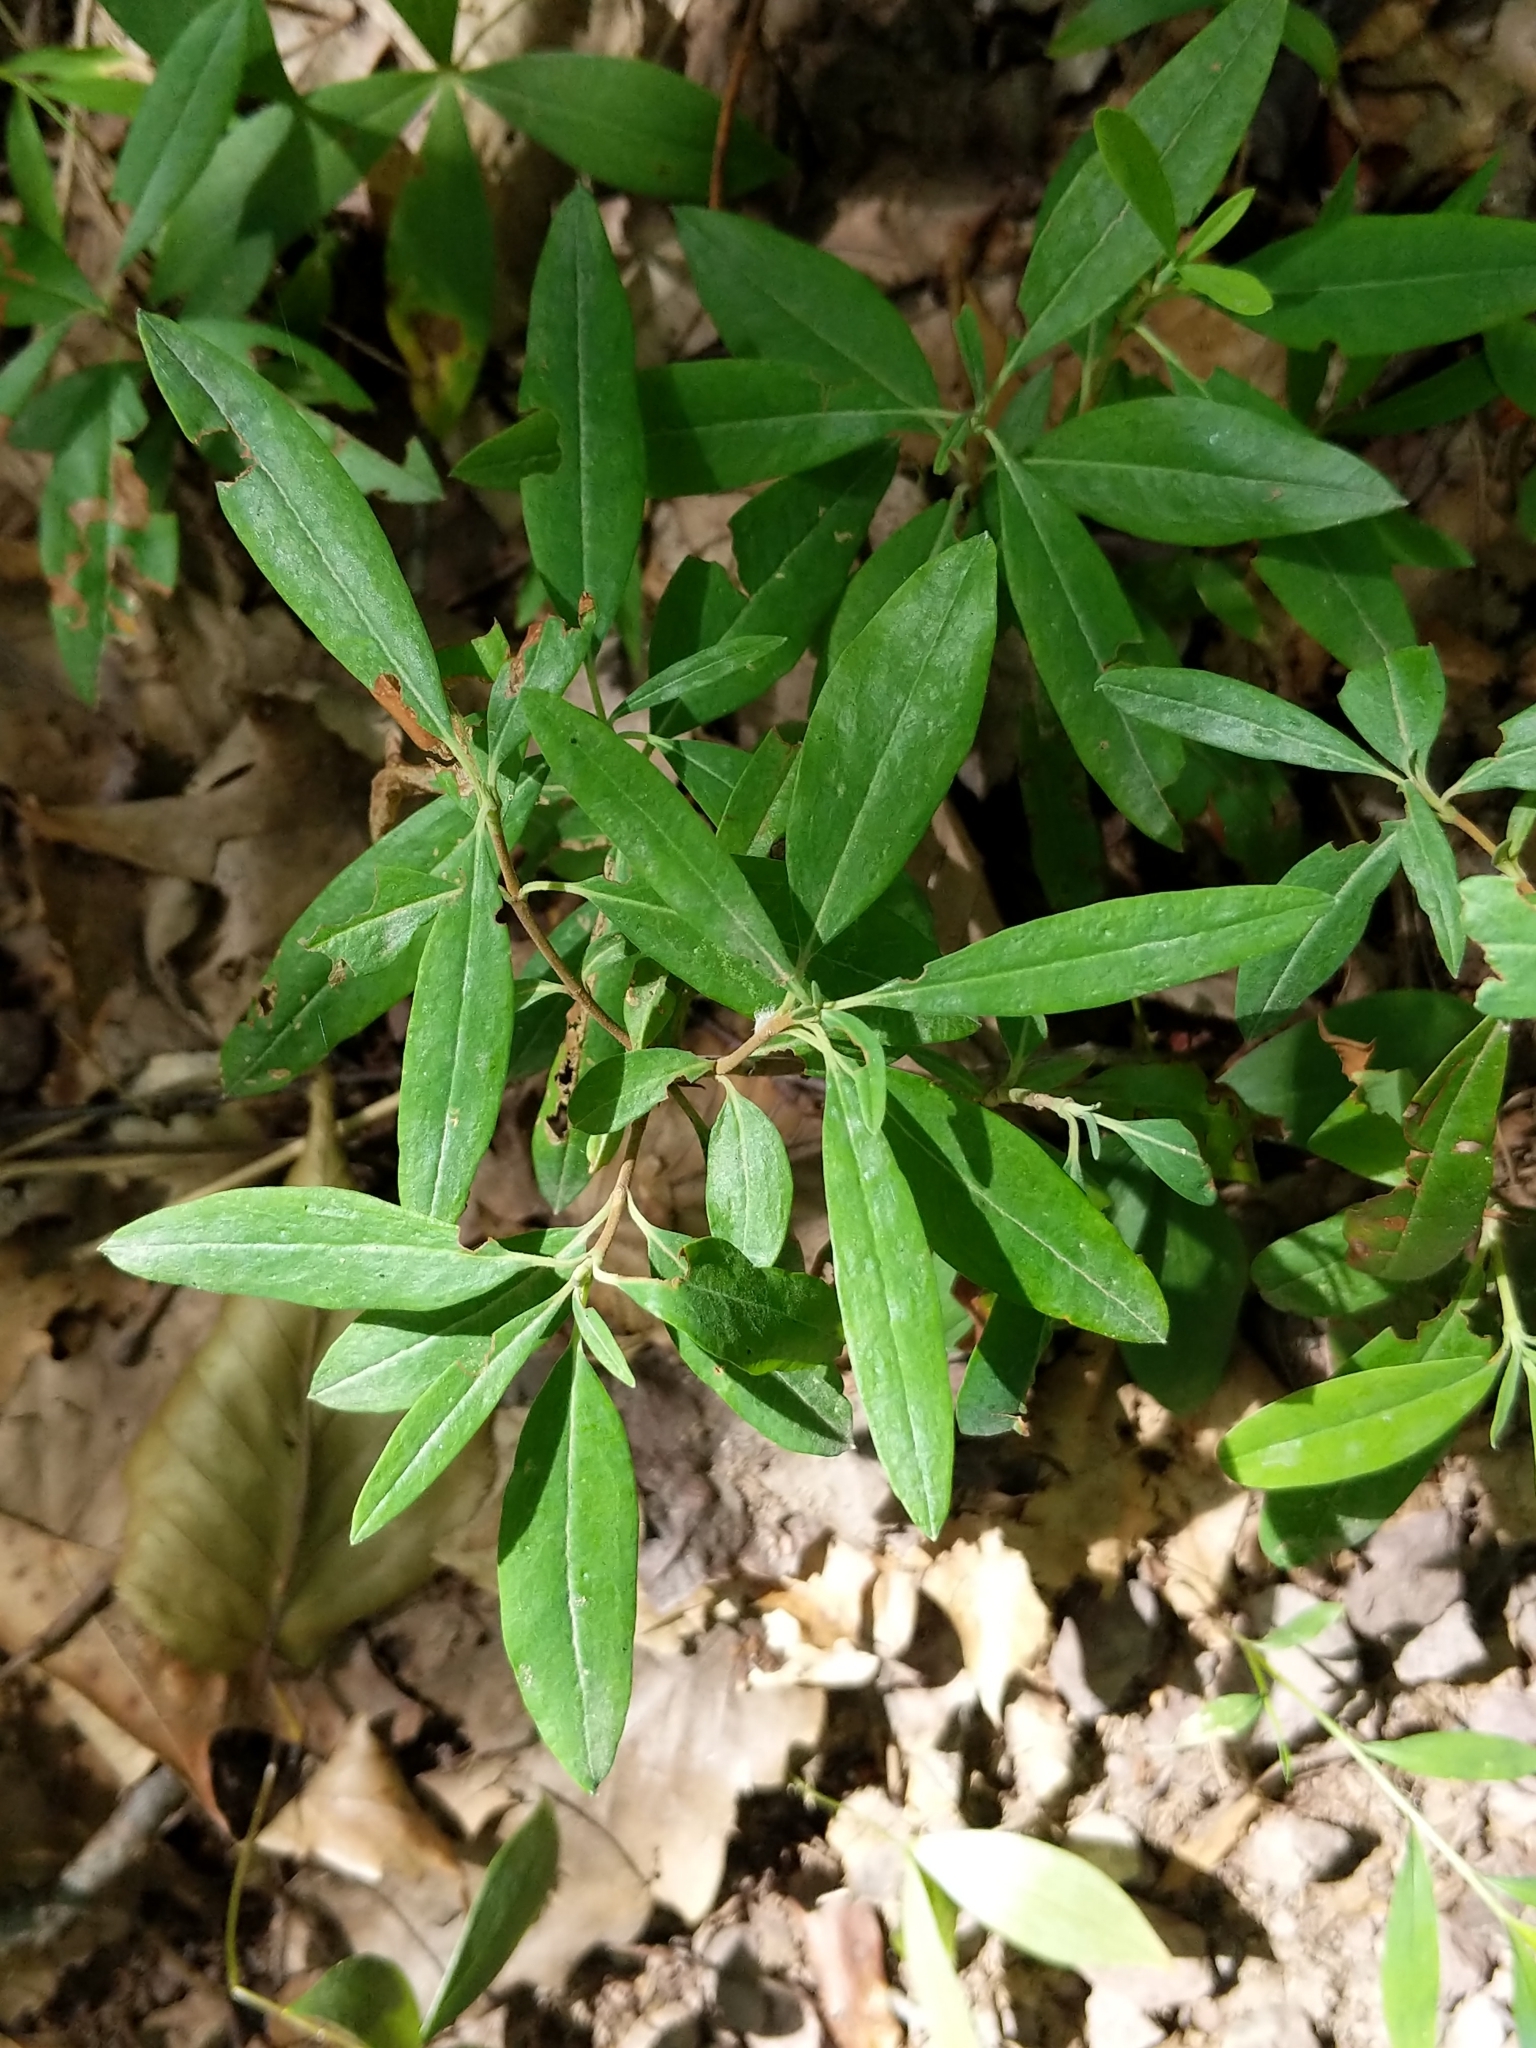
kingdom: Plantae
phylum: Tracheophyta
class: Magnoliopsida
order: Ericales
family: Ericaceae
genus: Kalmia
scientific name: Kalmia angustifolia
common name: Sheep-laurel
